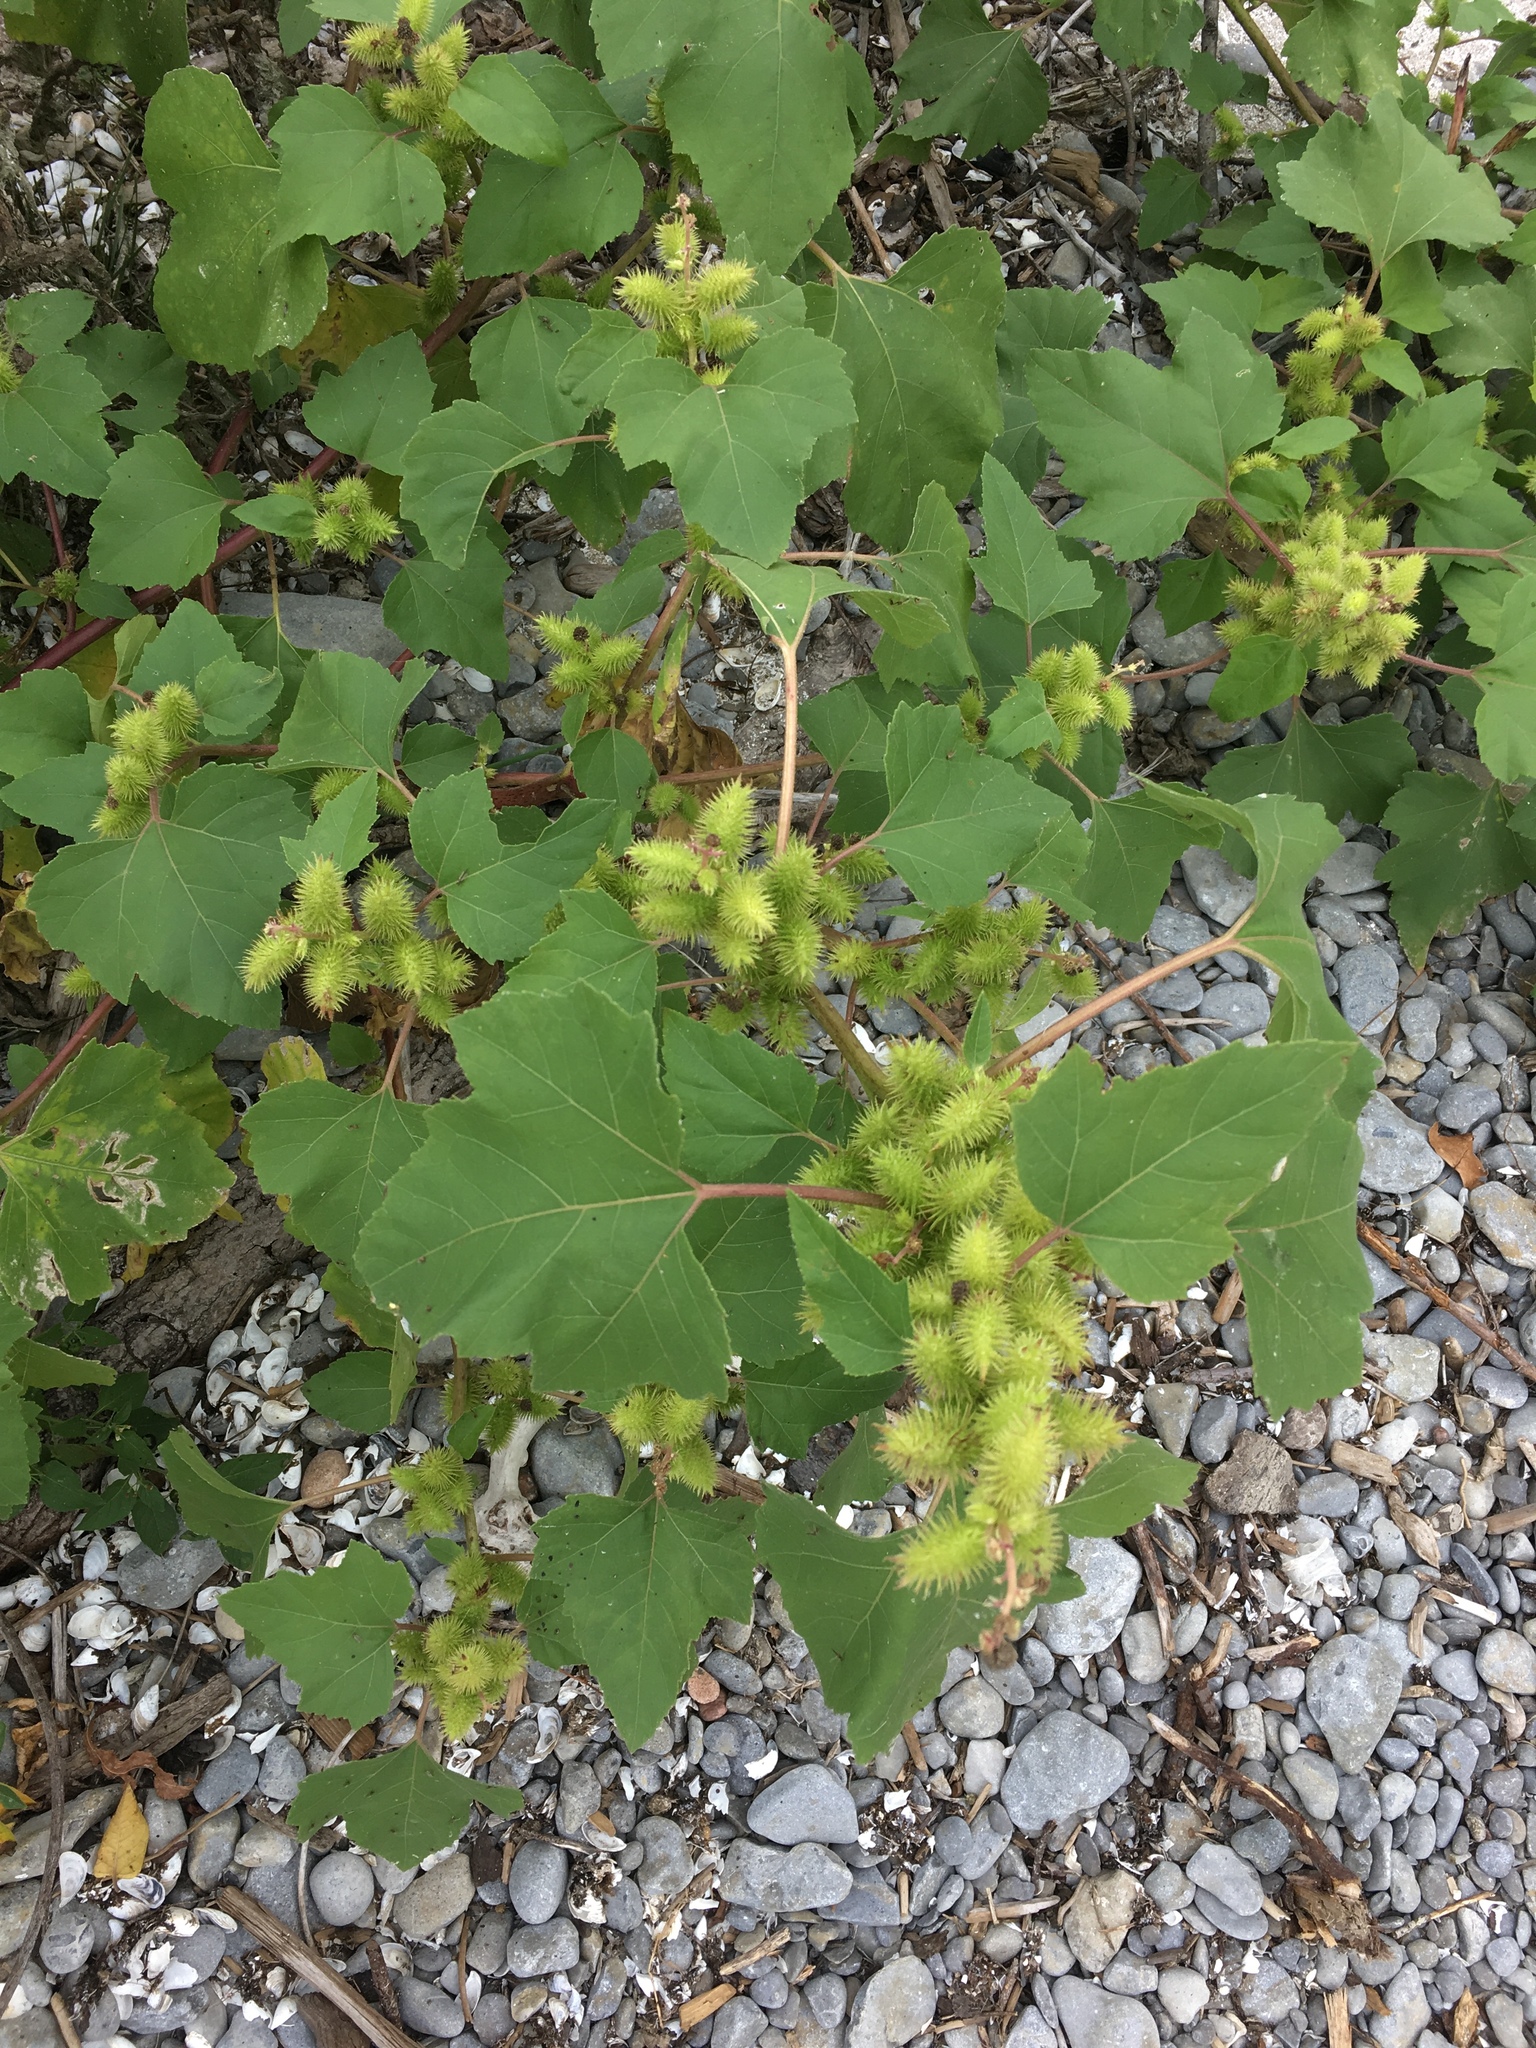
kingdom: Plantae
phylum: Tracheophyta
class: Magnoliopsida
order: Asterales
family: Asteraceae
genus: Xanthium
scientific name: Xanthium strumarium
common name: Rough cocklebur
